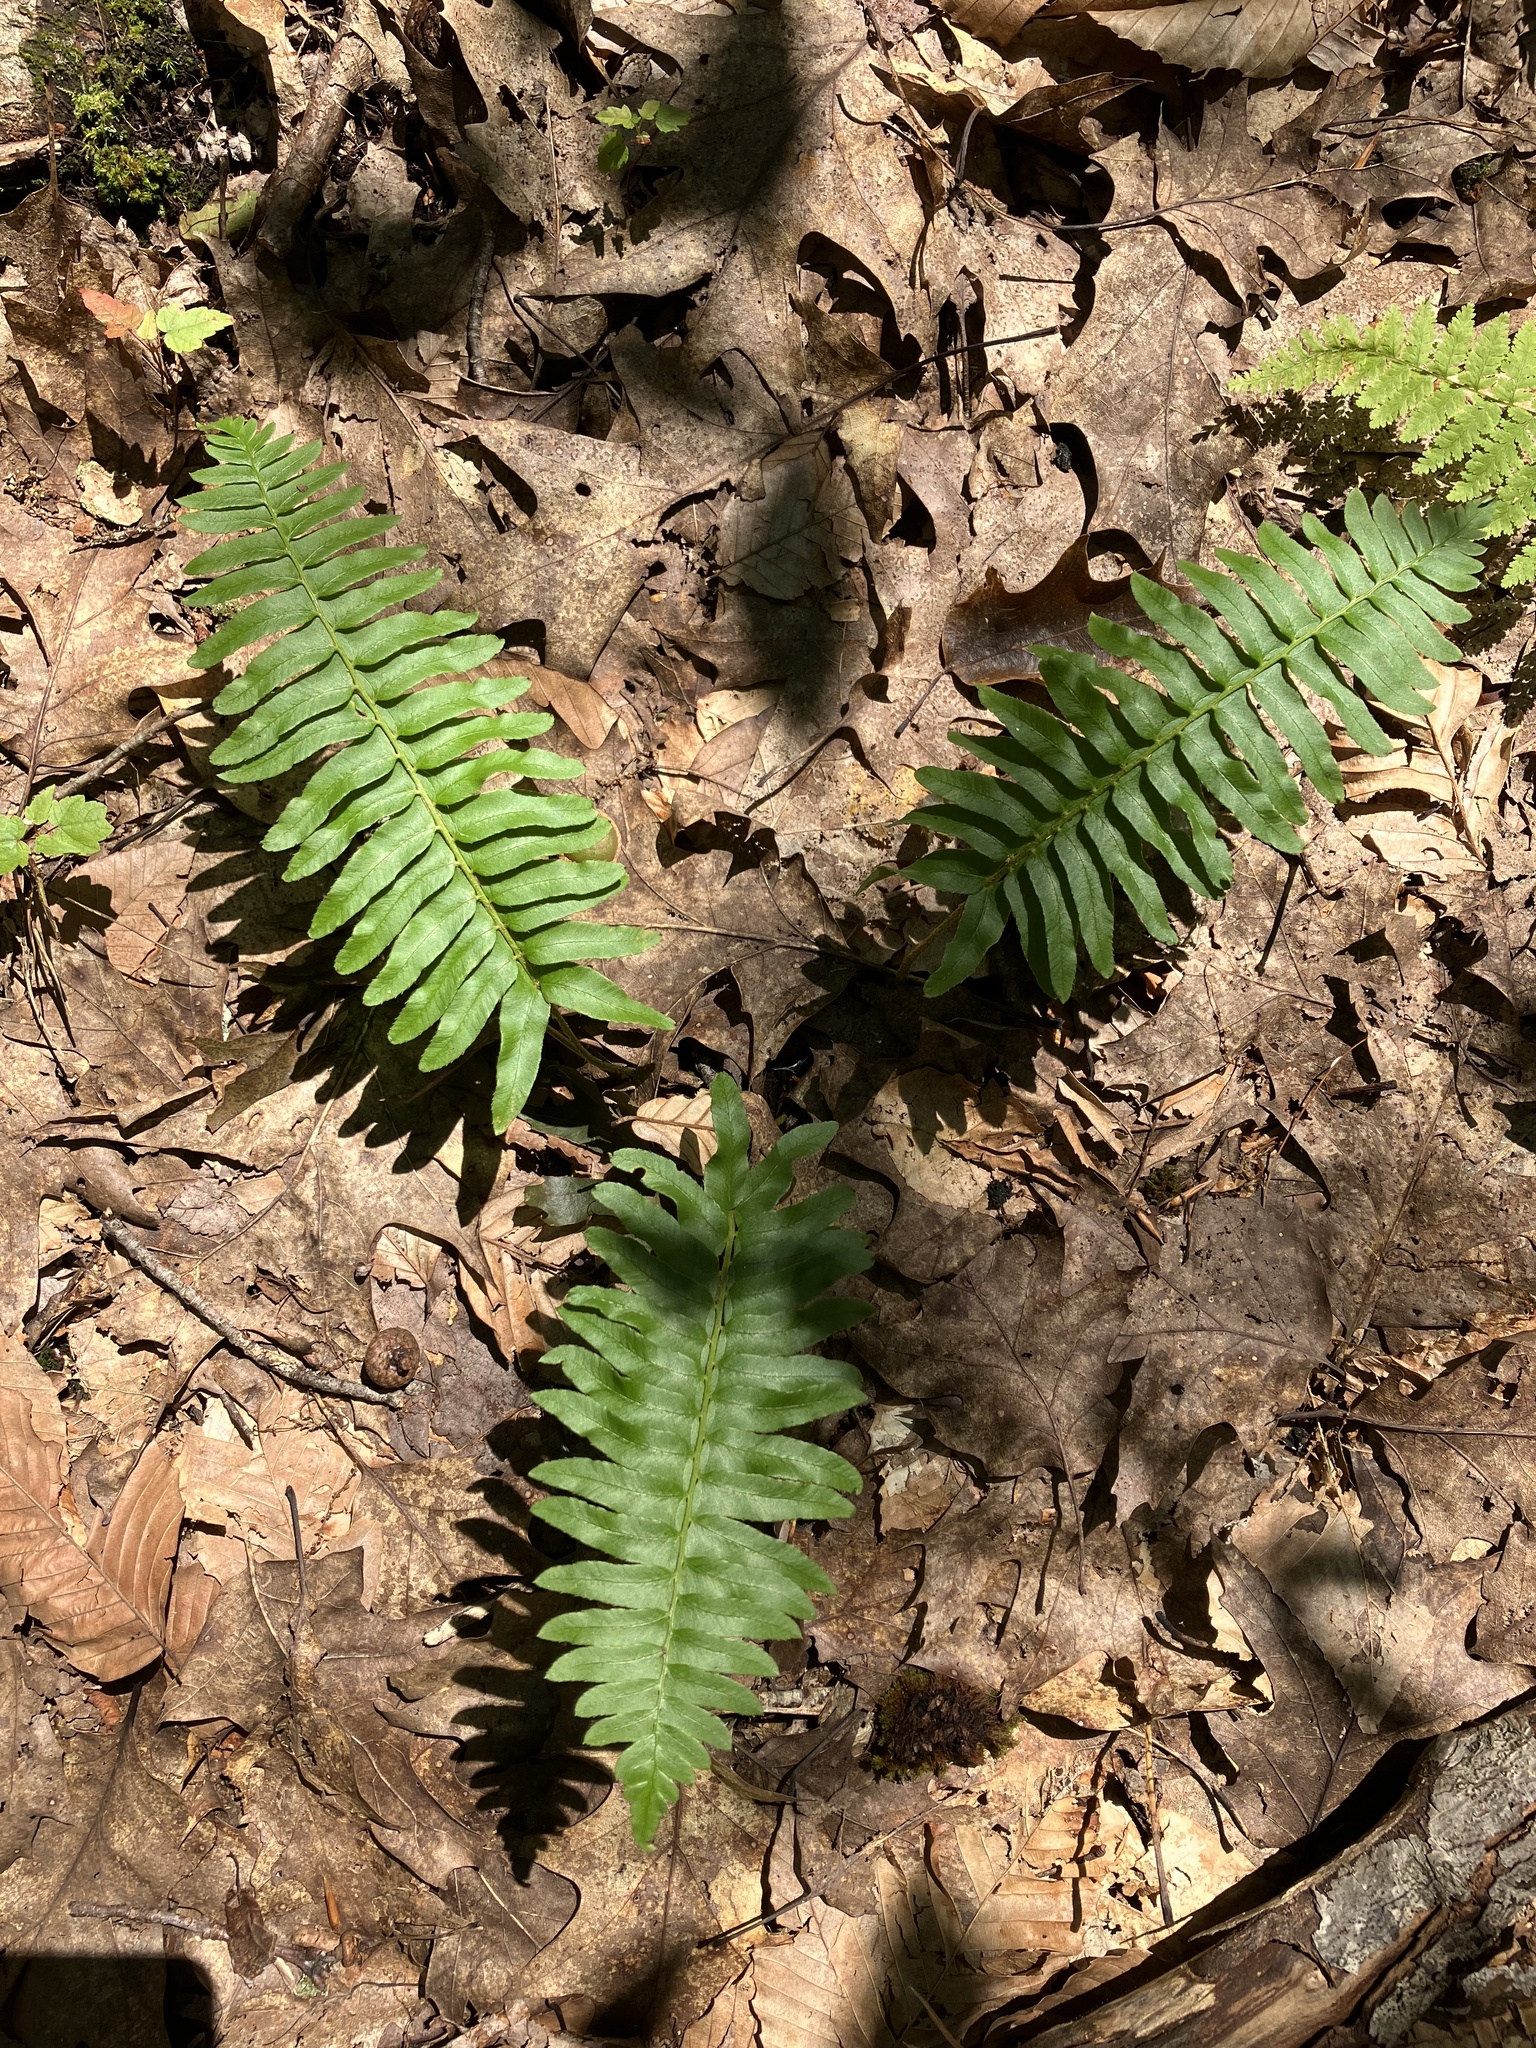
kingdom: Plantae
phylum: Tracheophyta
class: Polypodiopsida
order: Polypodiales
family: Dryopteridaceae
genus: Polystichum
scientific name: Polystichum acrostichoides
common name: Christmas fern
